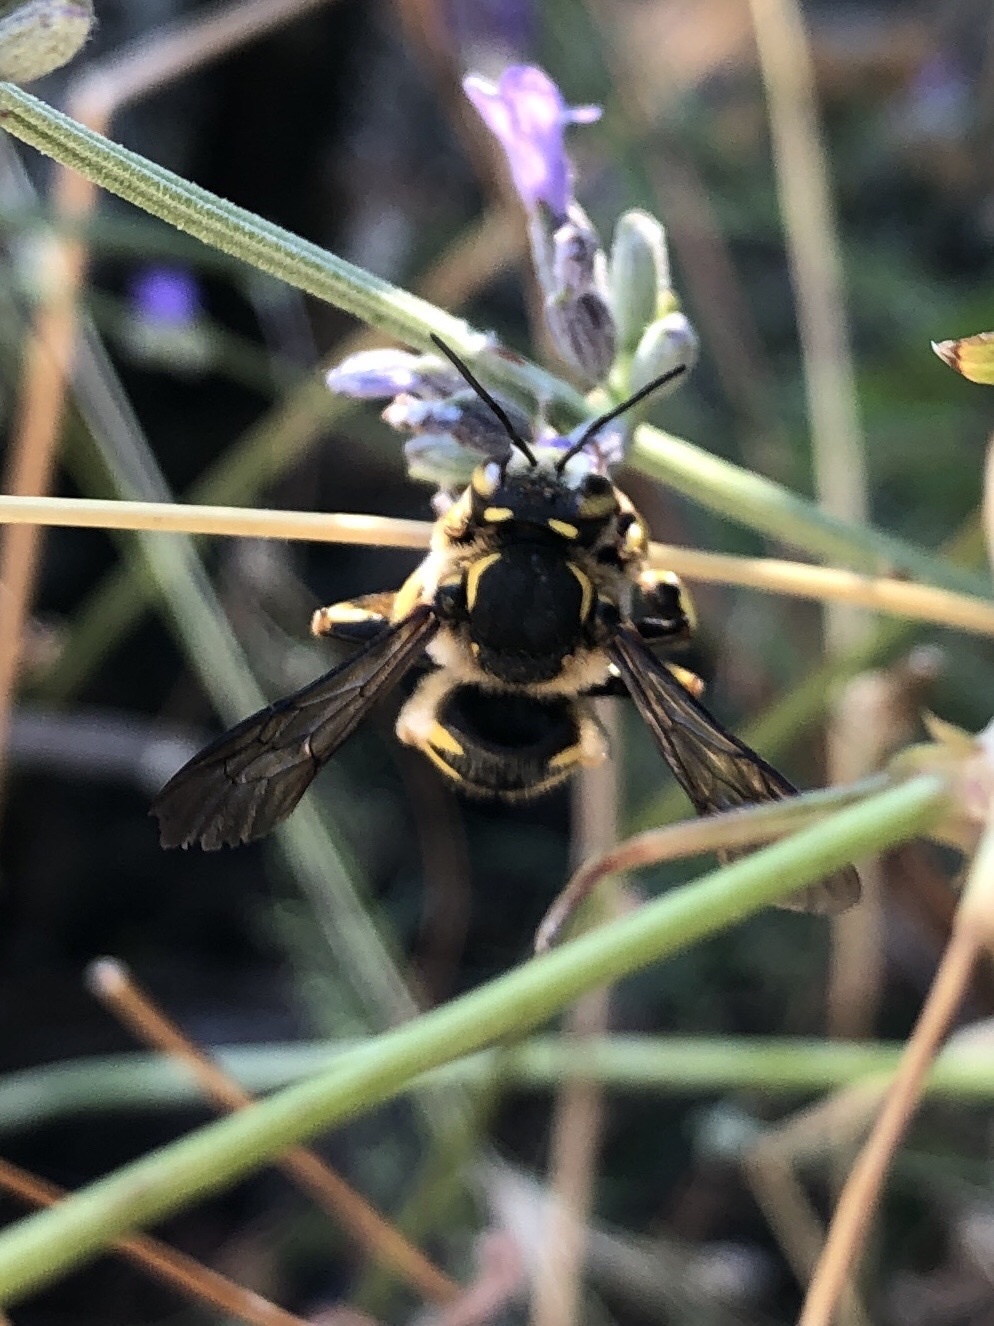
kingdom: Animalia
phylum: Arthropoda
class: Insecta
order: Hymenoptera
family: Megachilidae
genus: Anthidium
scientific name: Anthidium florentinum
